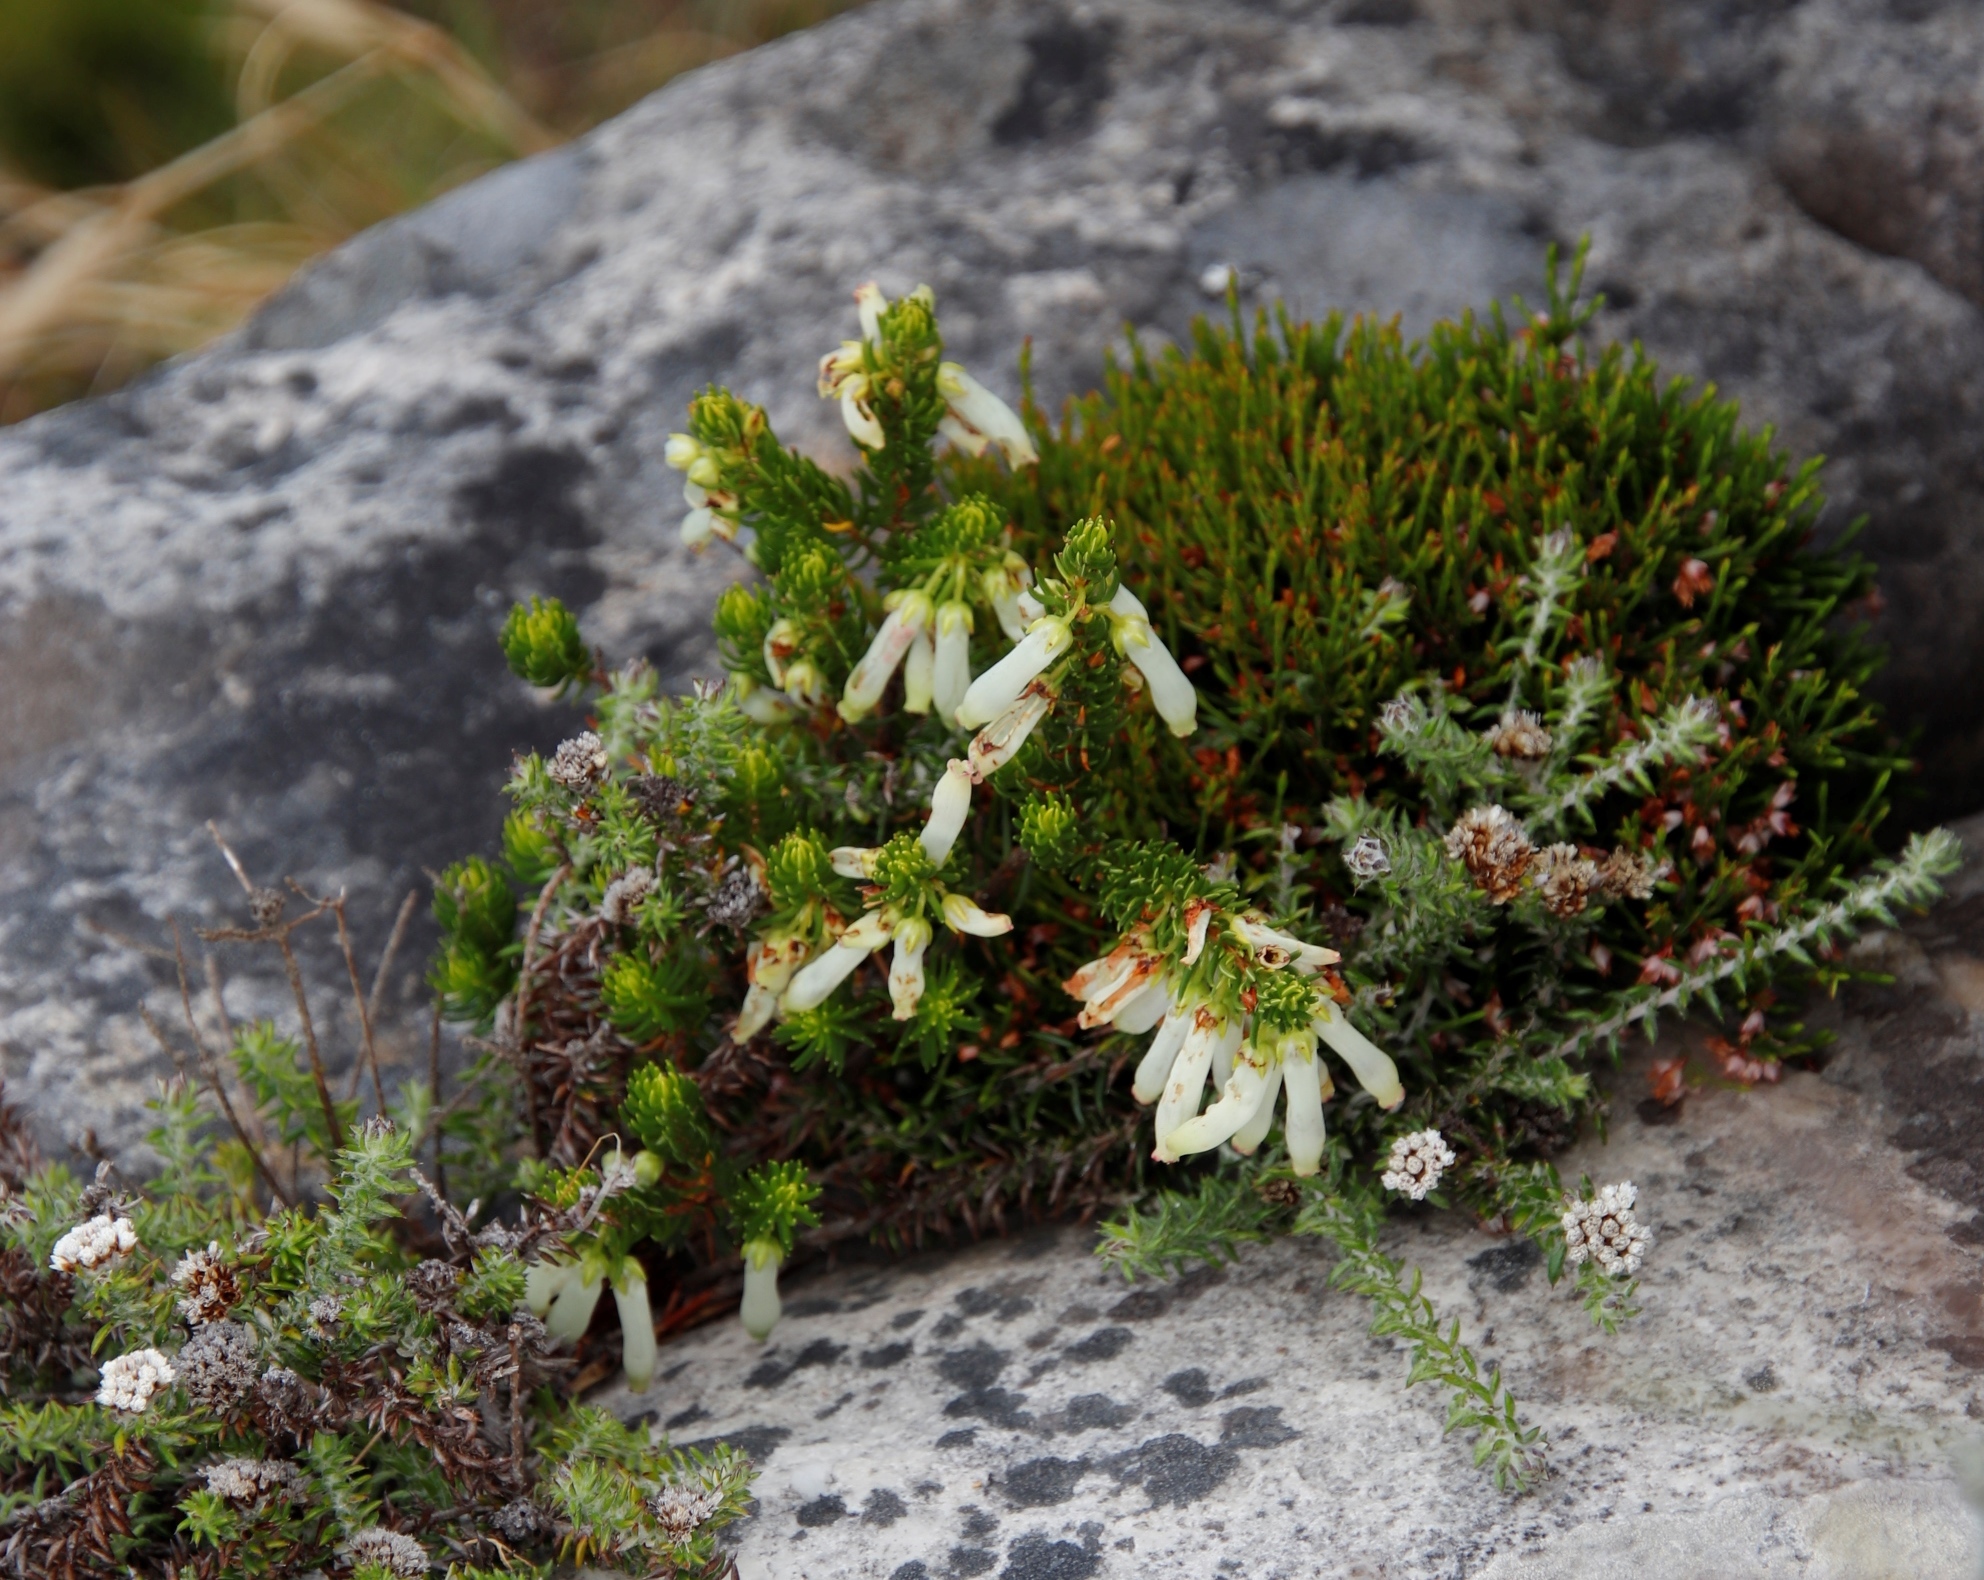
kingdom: Plantae
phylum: Tracheophyta
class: Magnoliopsida
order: Ericales
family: Ericaceae
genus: Erica
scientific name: Erica mammosa
